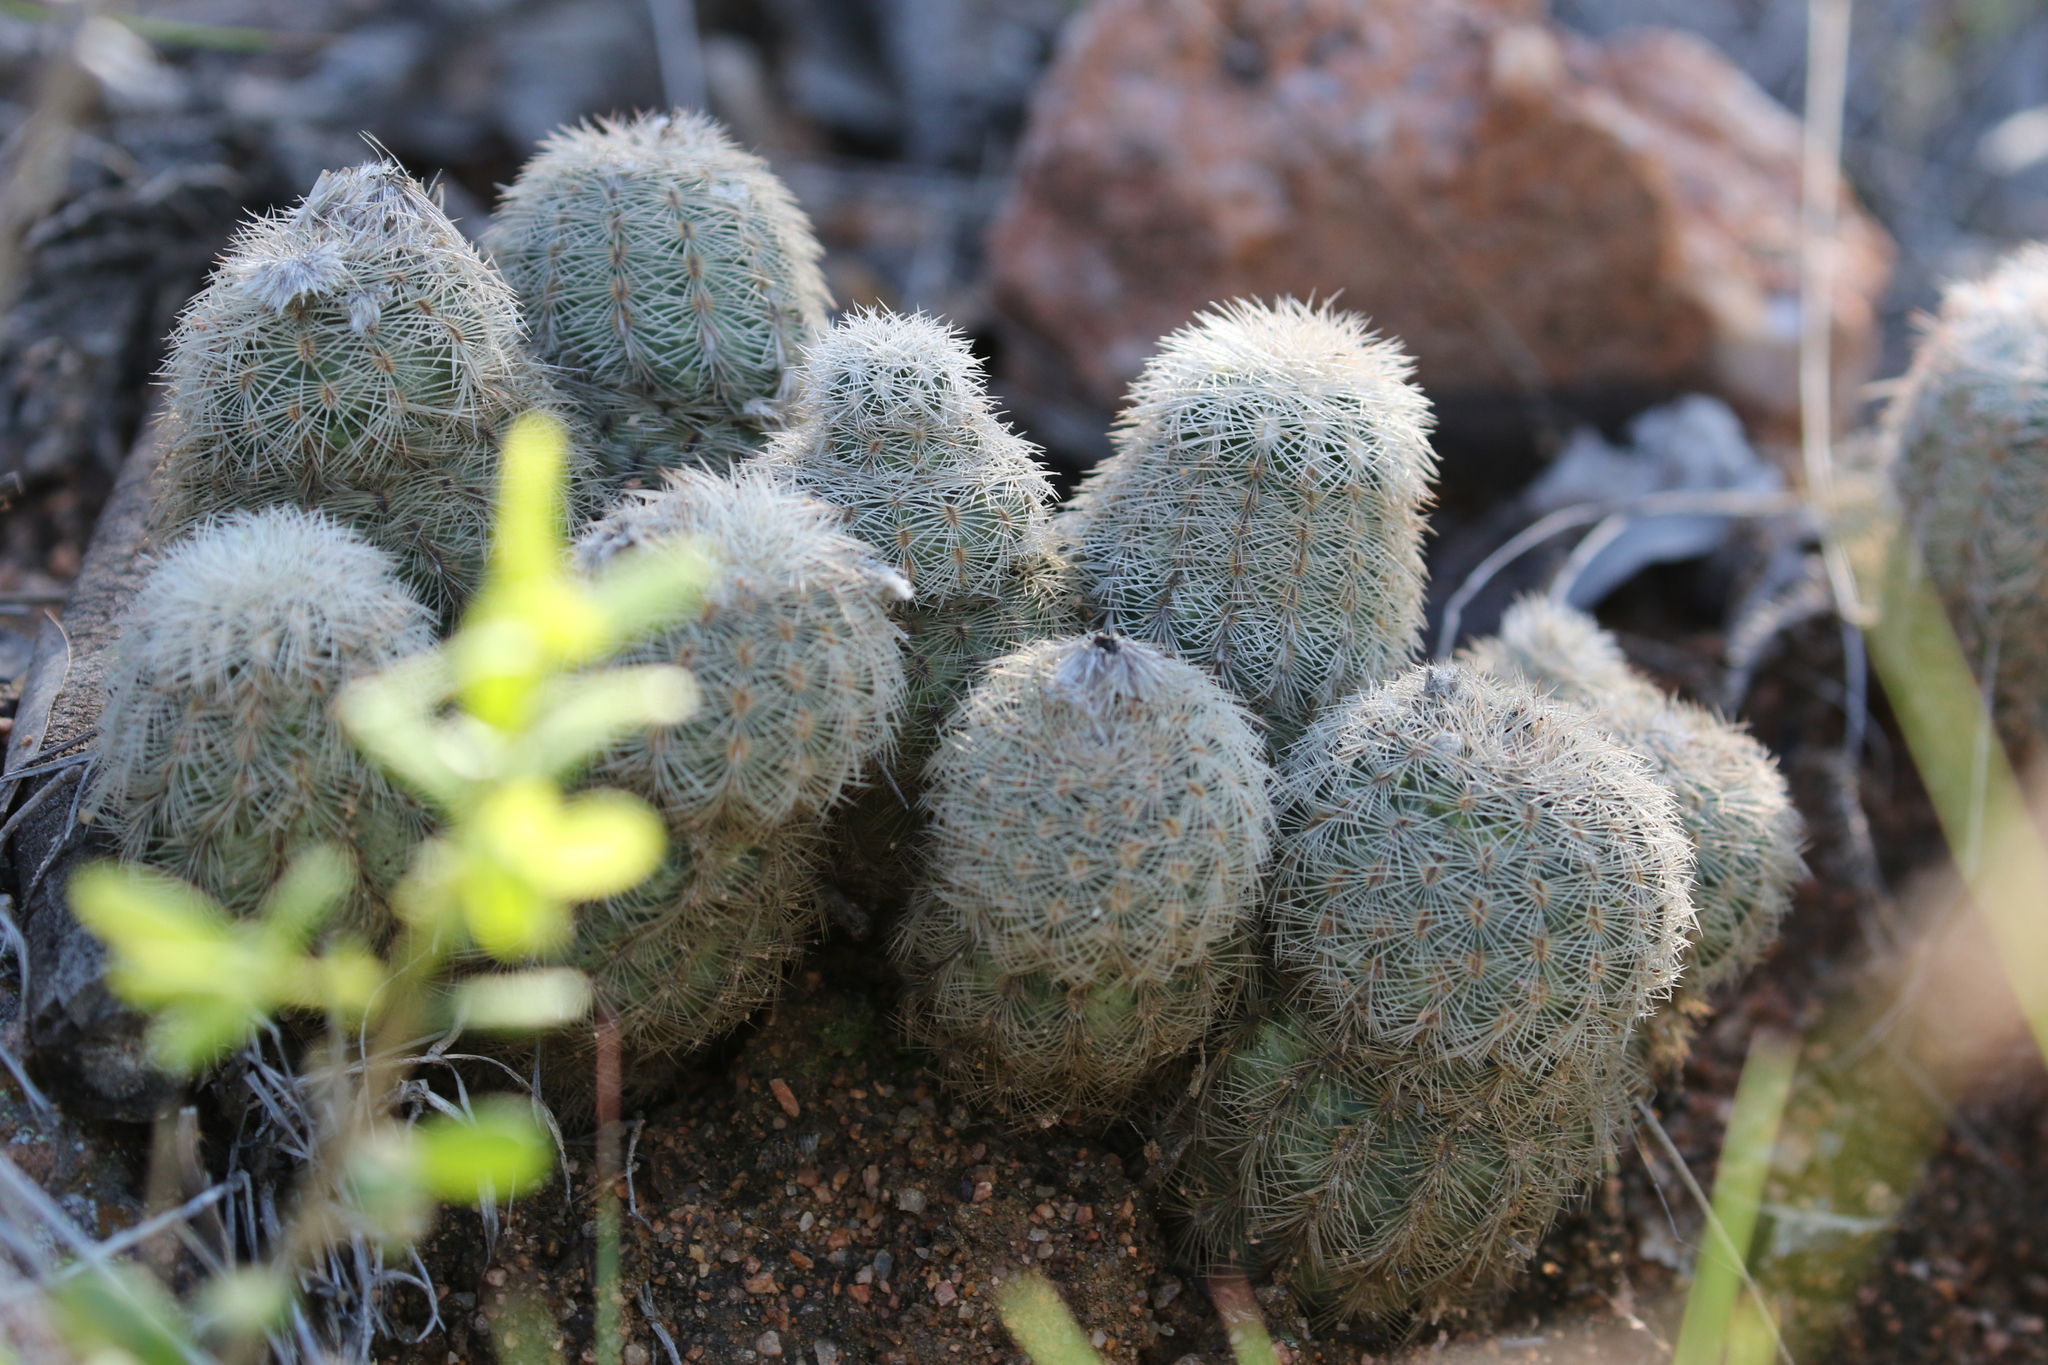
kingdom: Plantae
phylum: Tracheophyta
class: Magnoliopsida
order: Caryophyllales
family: Cactaceae
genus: Echinocereus
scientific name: Echinocereus reichenbachii
